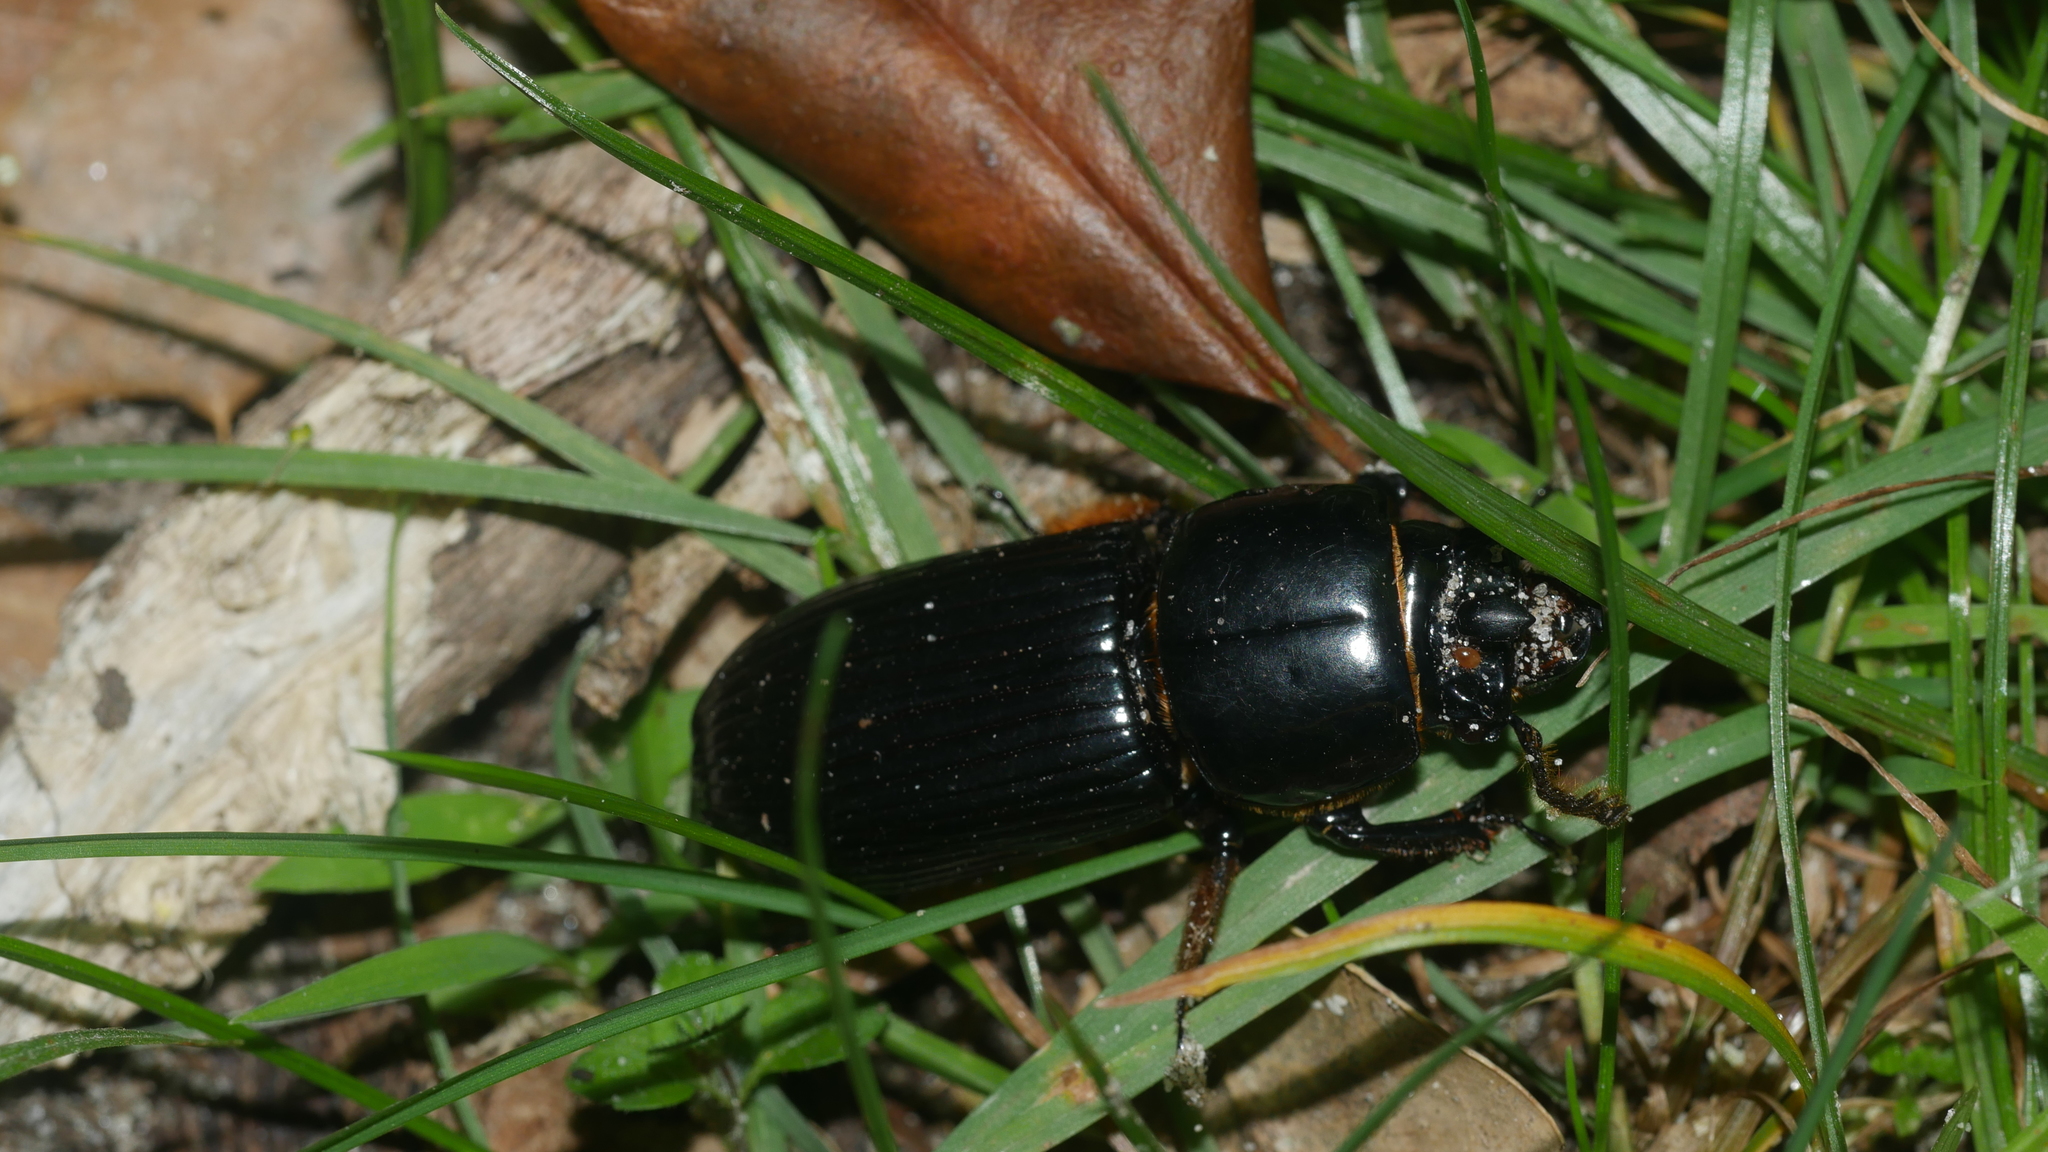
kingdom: Animalia
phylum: Arthropoda
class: Insecta
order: Coleoptera
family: Passalidae
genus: Odontotaenius
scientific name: Odontotaenius disjunctus
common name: Patent leather beetle
